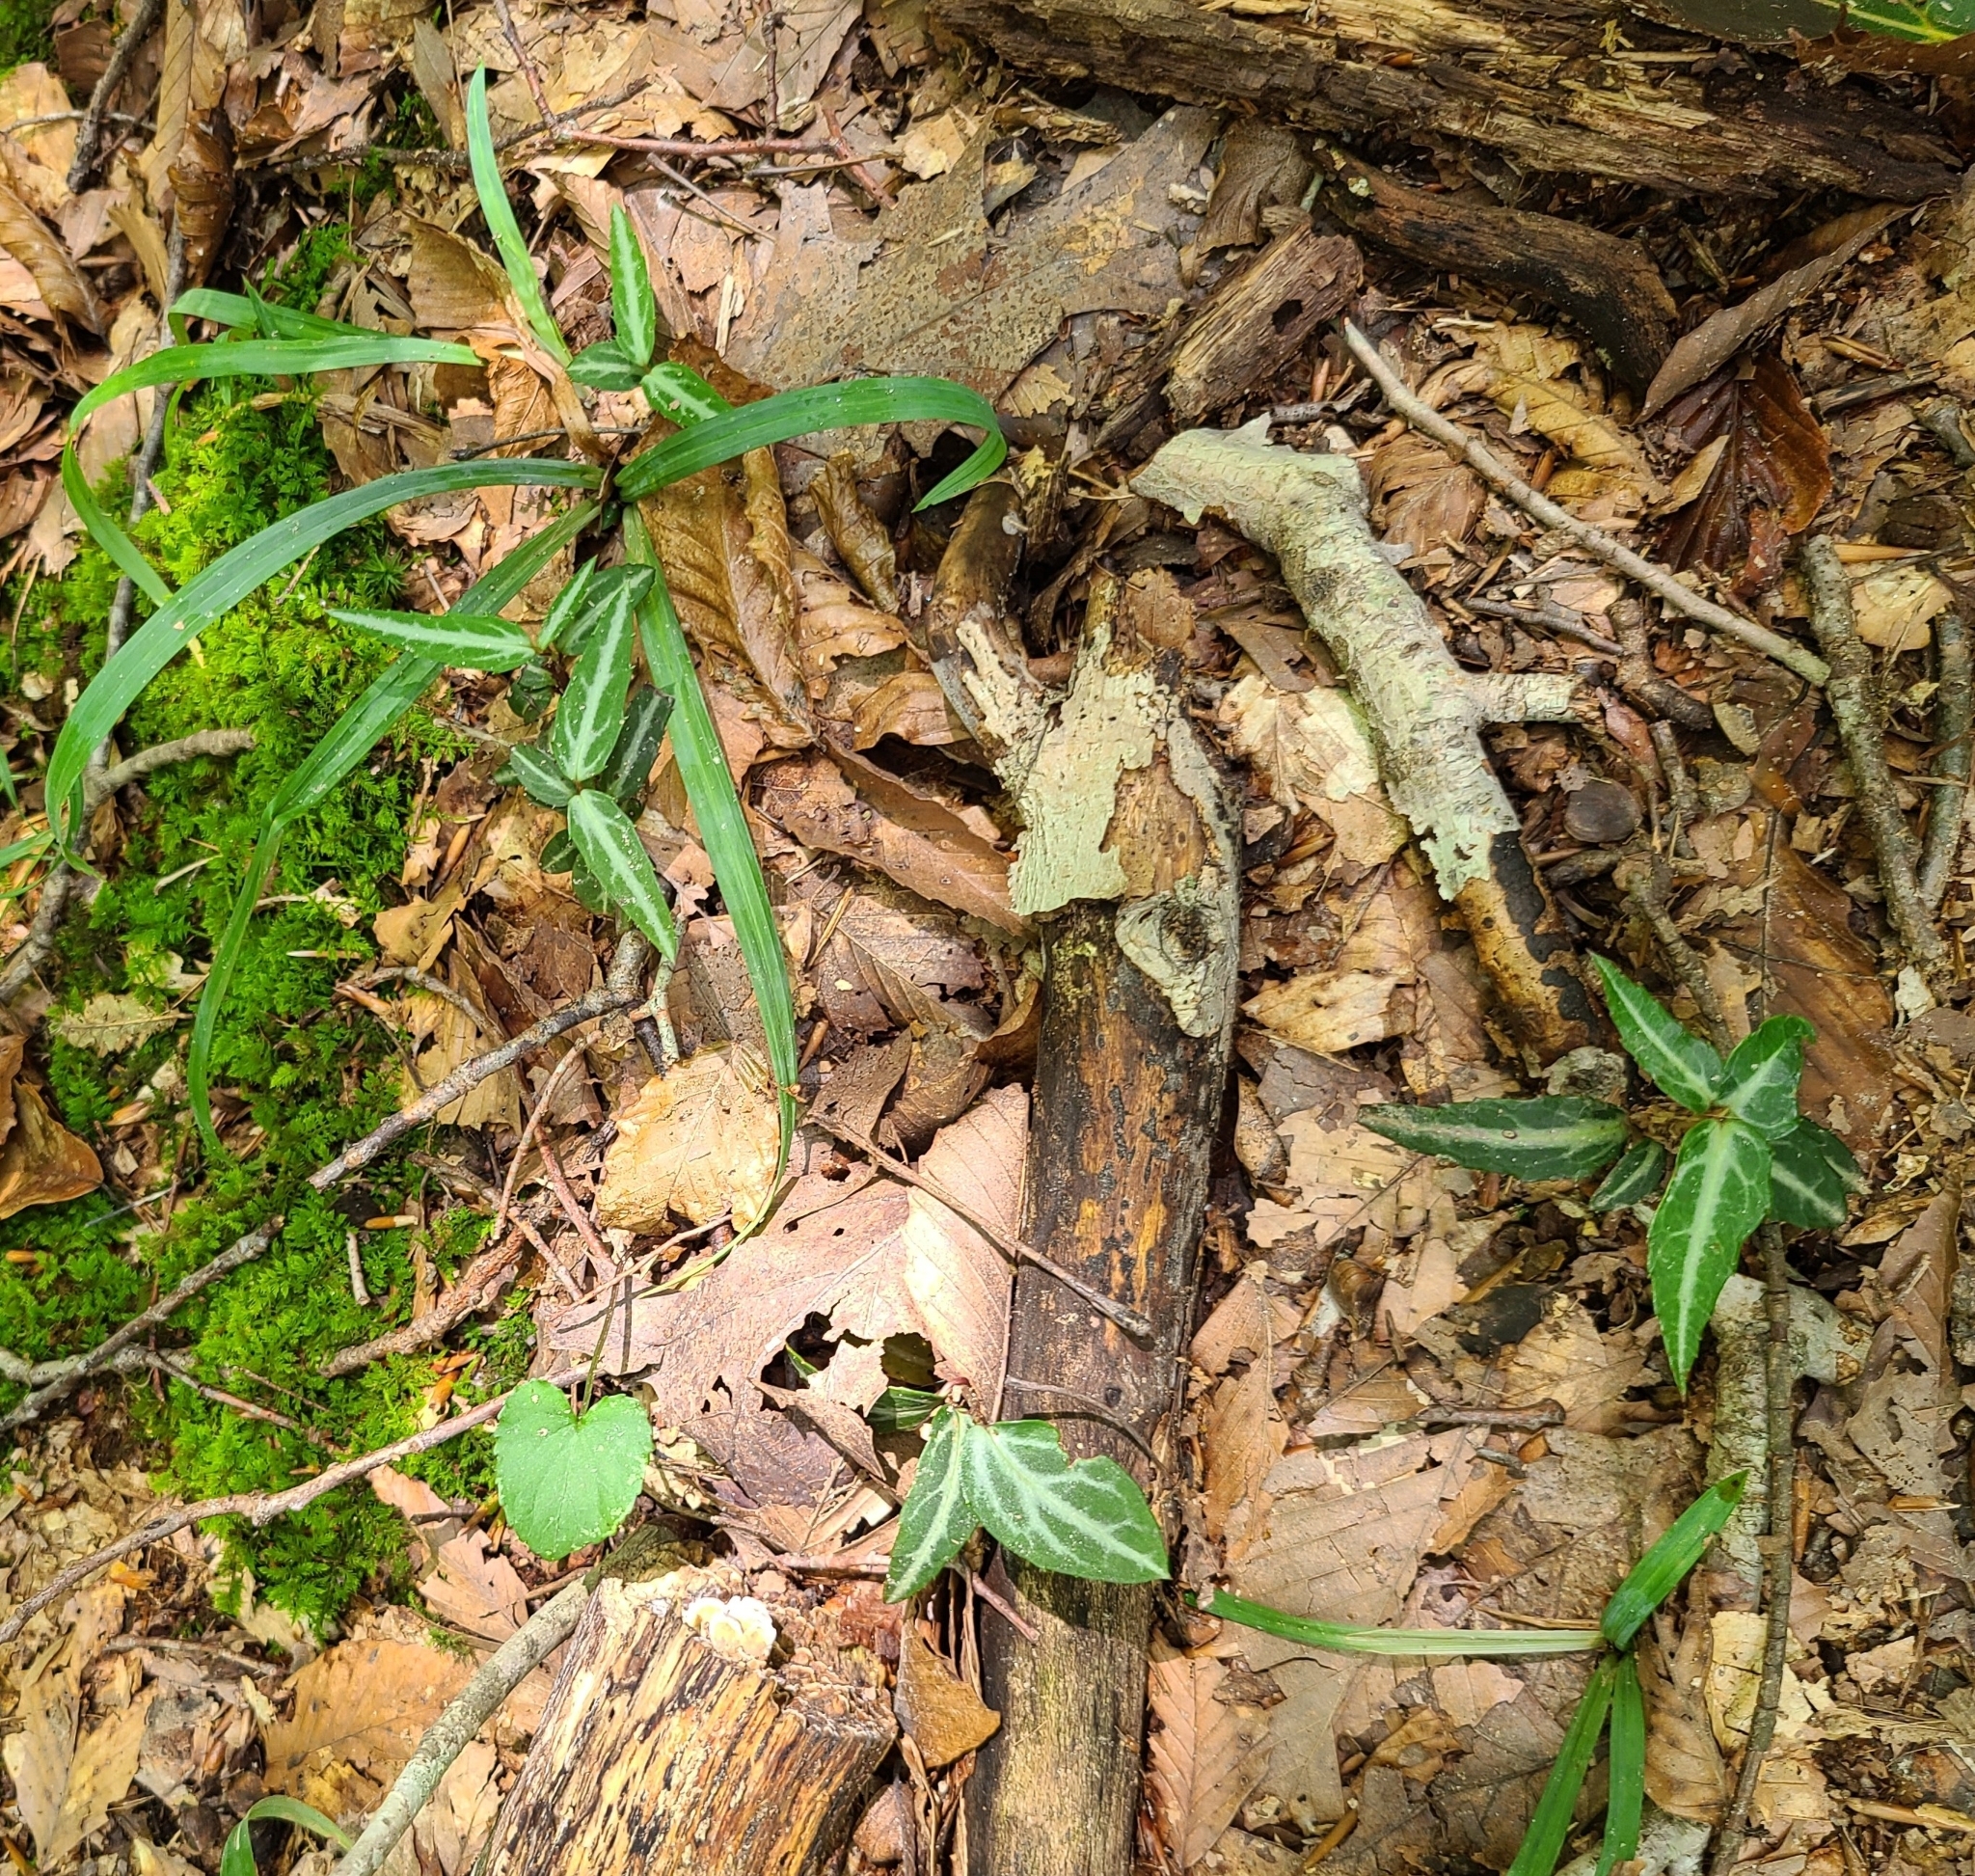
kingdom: Plantae
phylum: Tracheophyta
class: Magnoliopsida
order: Ericales
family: Ericaceae
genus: Chimaphila
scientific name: Chimaphila maculata
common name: Spotted pipsissewa
